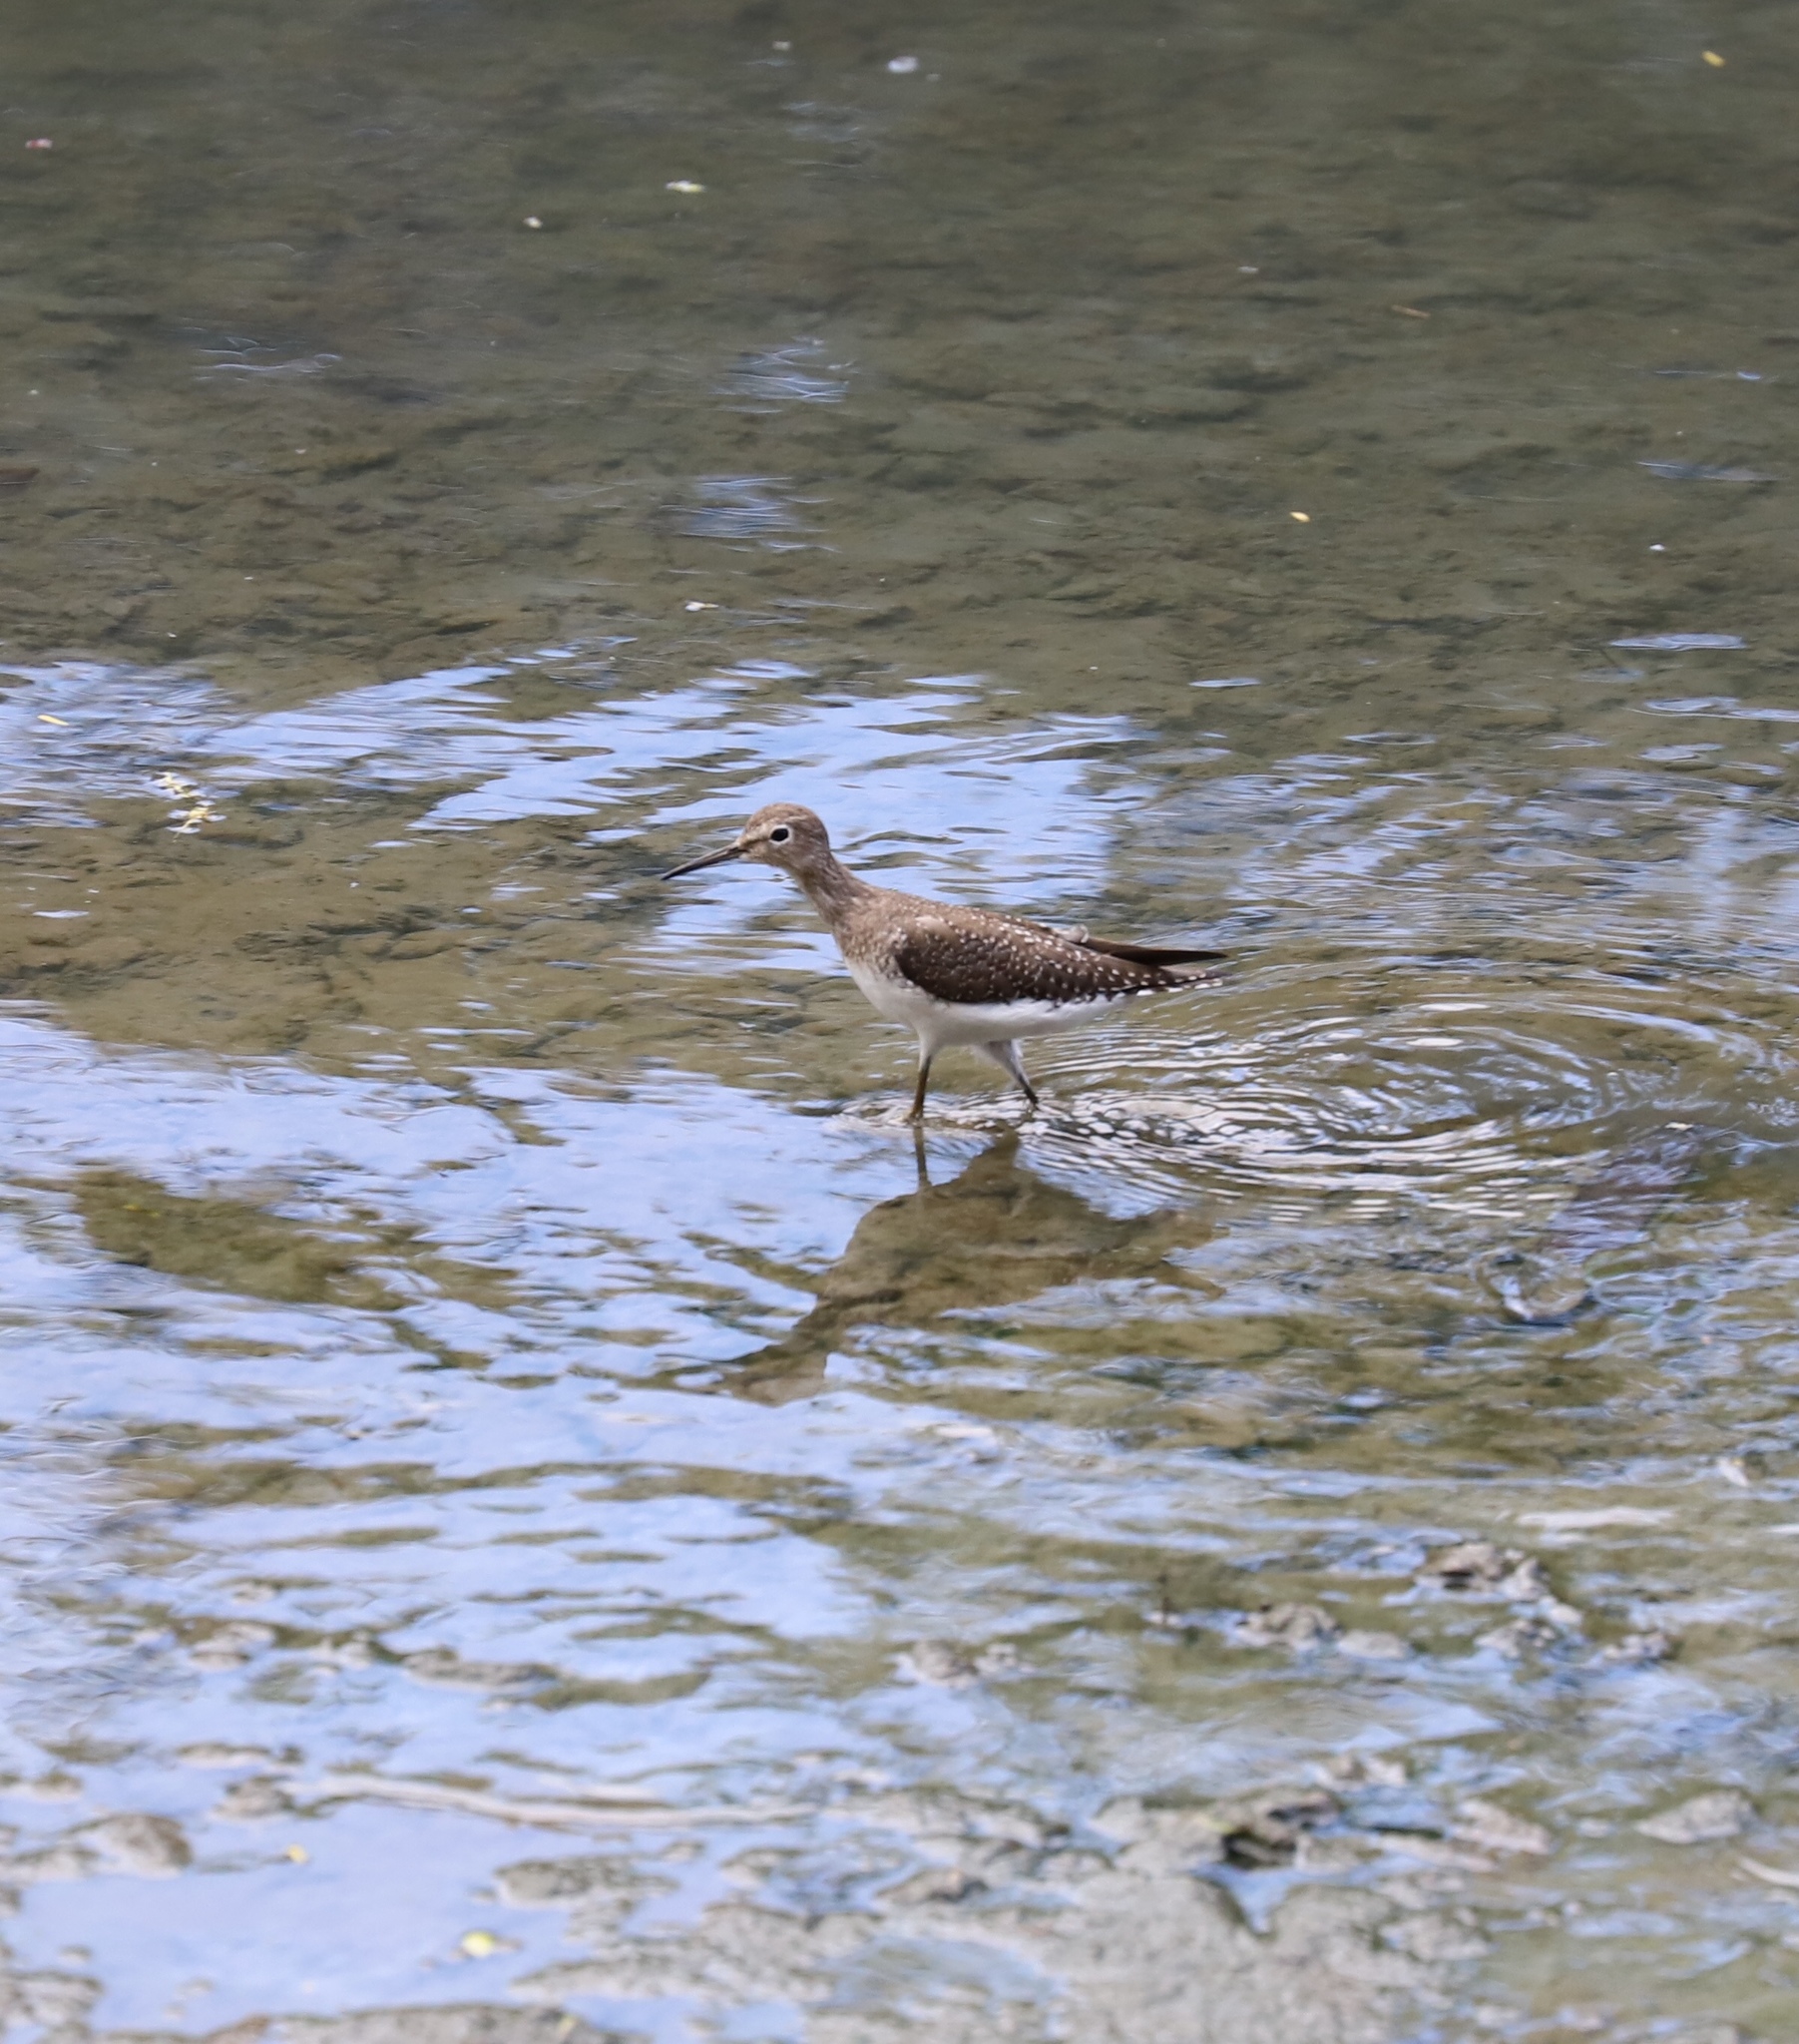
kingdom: Animalia
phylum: Chordata
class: Aves
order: Charadriiformes
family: Scolopacidae
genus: Tringa
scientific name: Tringa solitaria
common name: Solitary sandpiper
